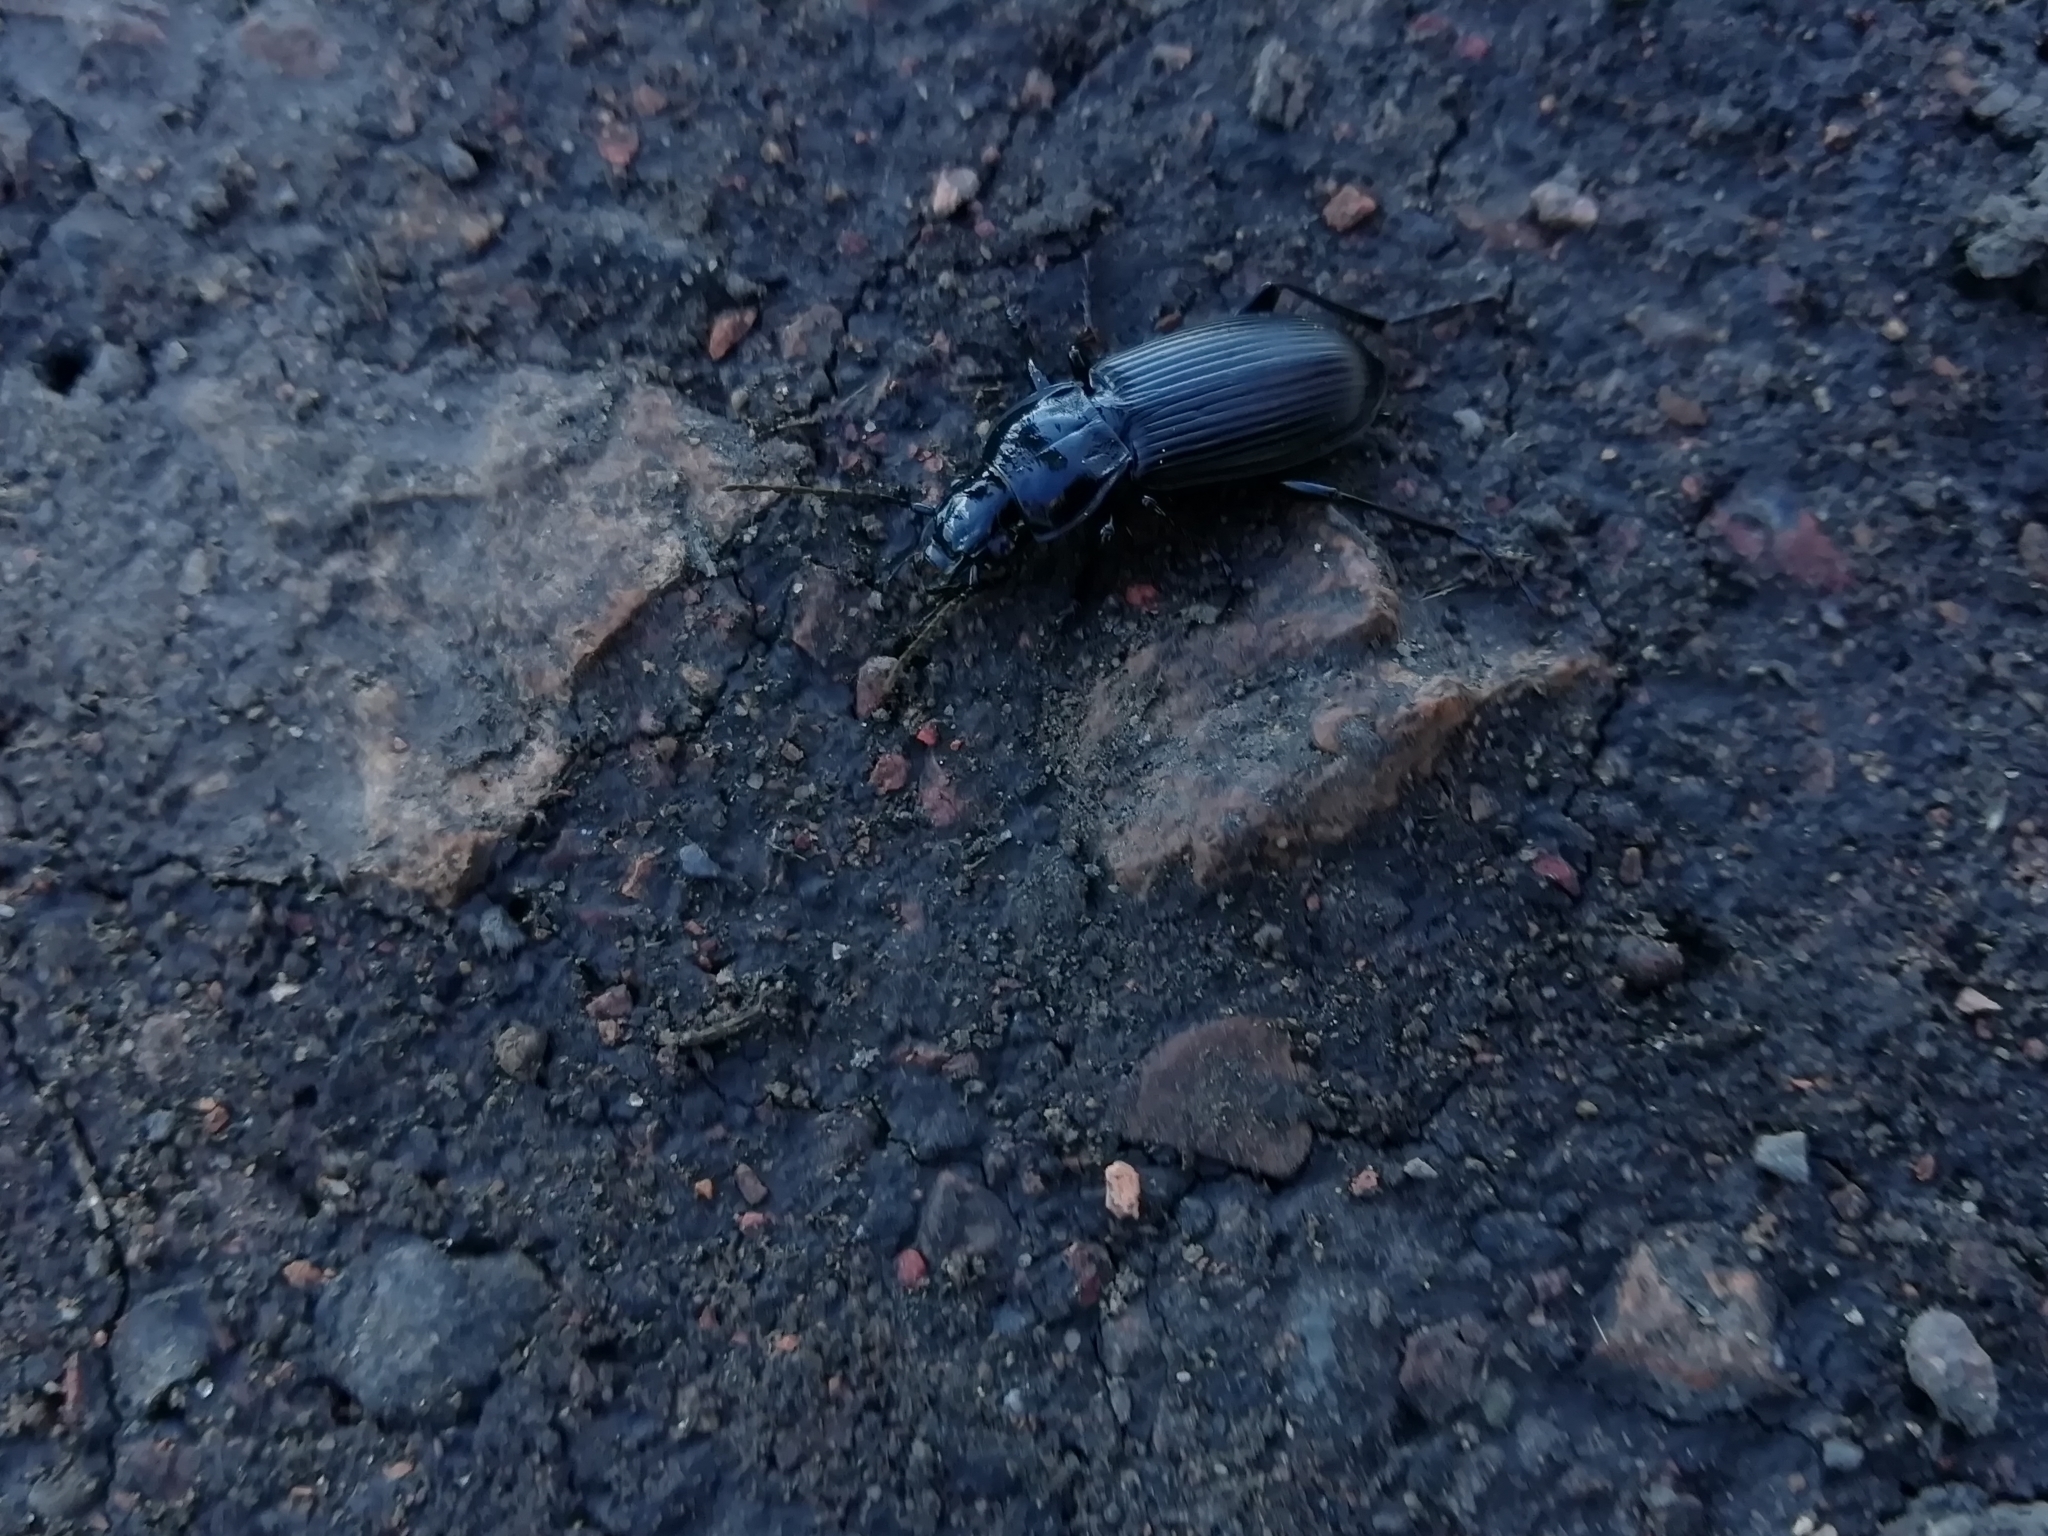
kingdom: Animalia
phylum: Arthropoda
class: Insecta
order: Coleoptera
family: Carabidae
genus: Pterostichus
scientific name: Pterostichus niger
